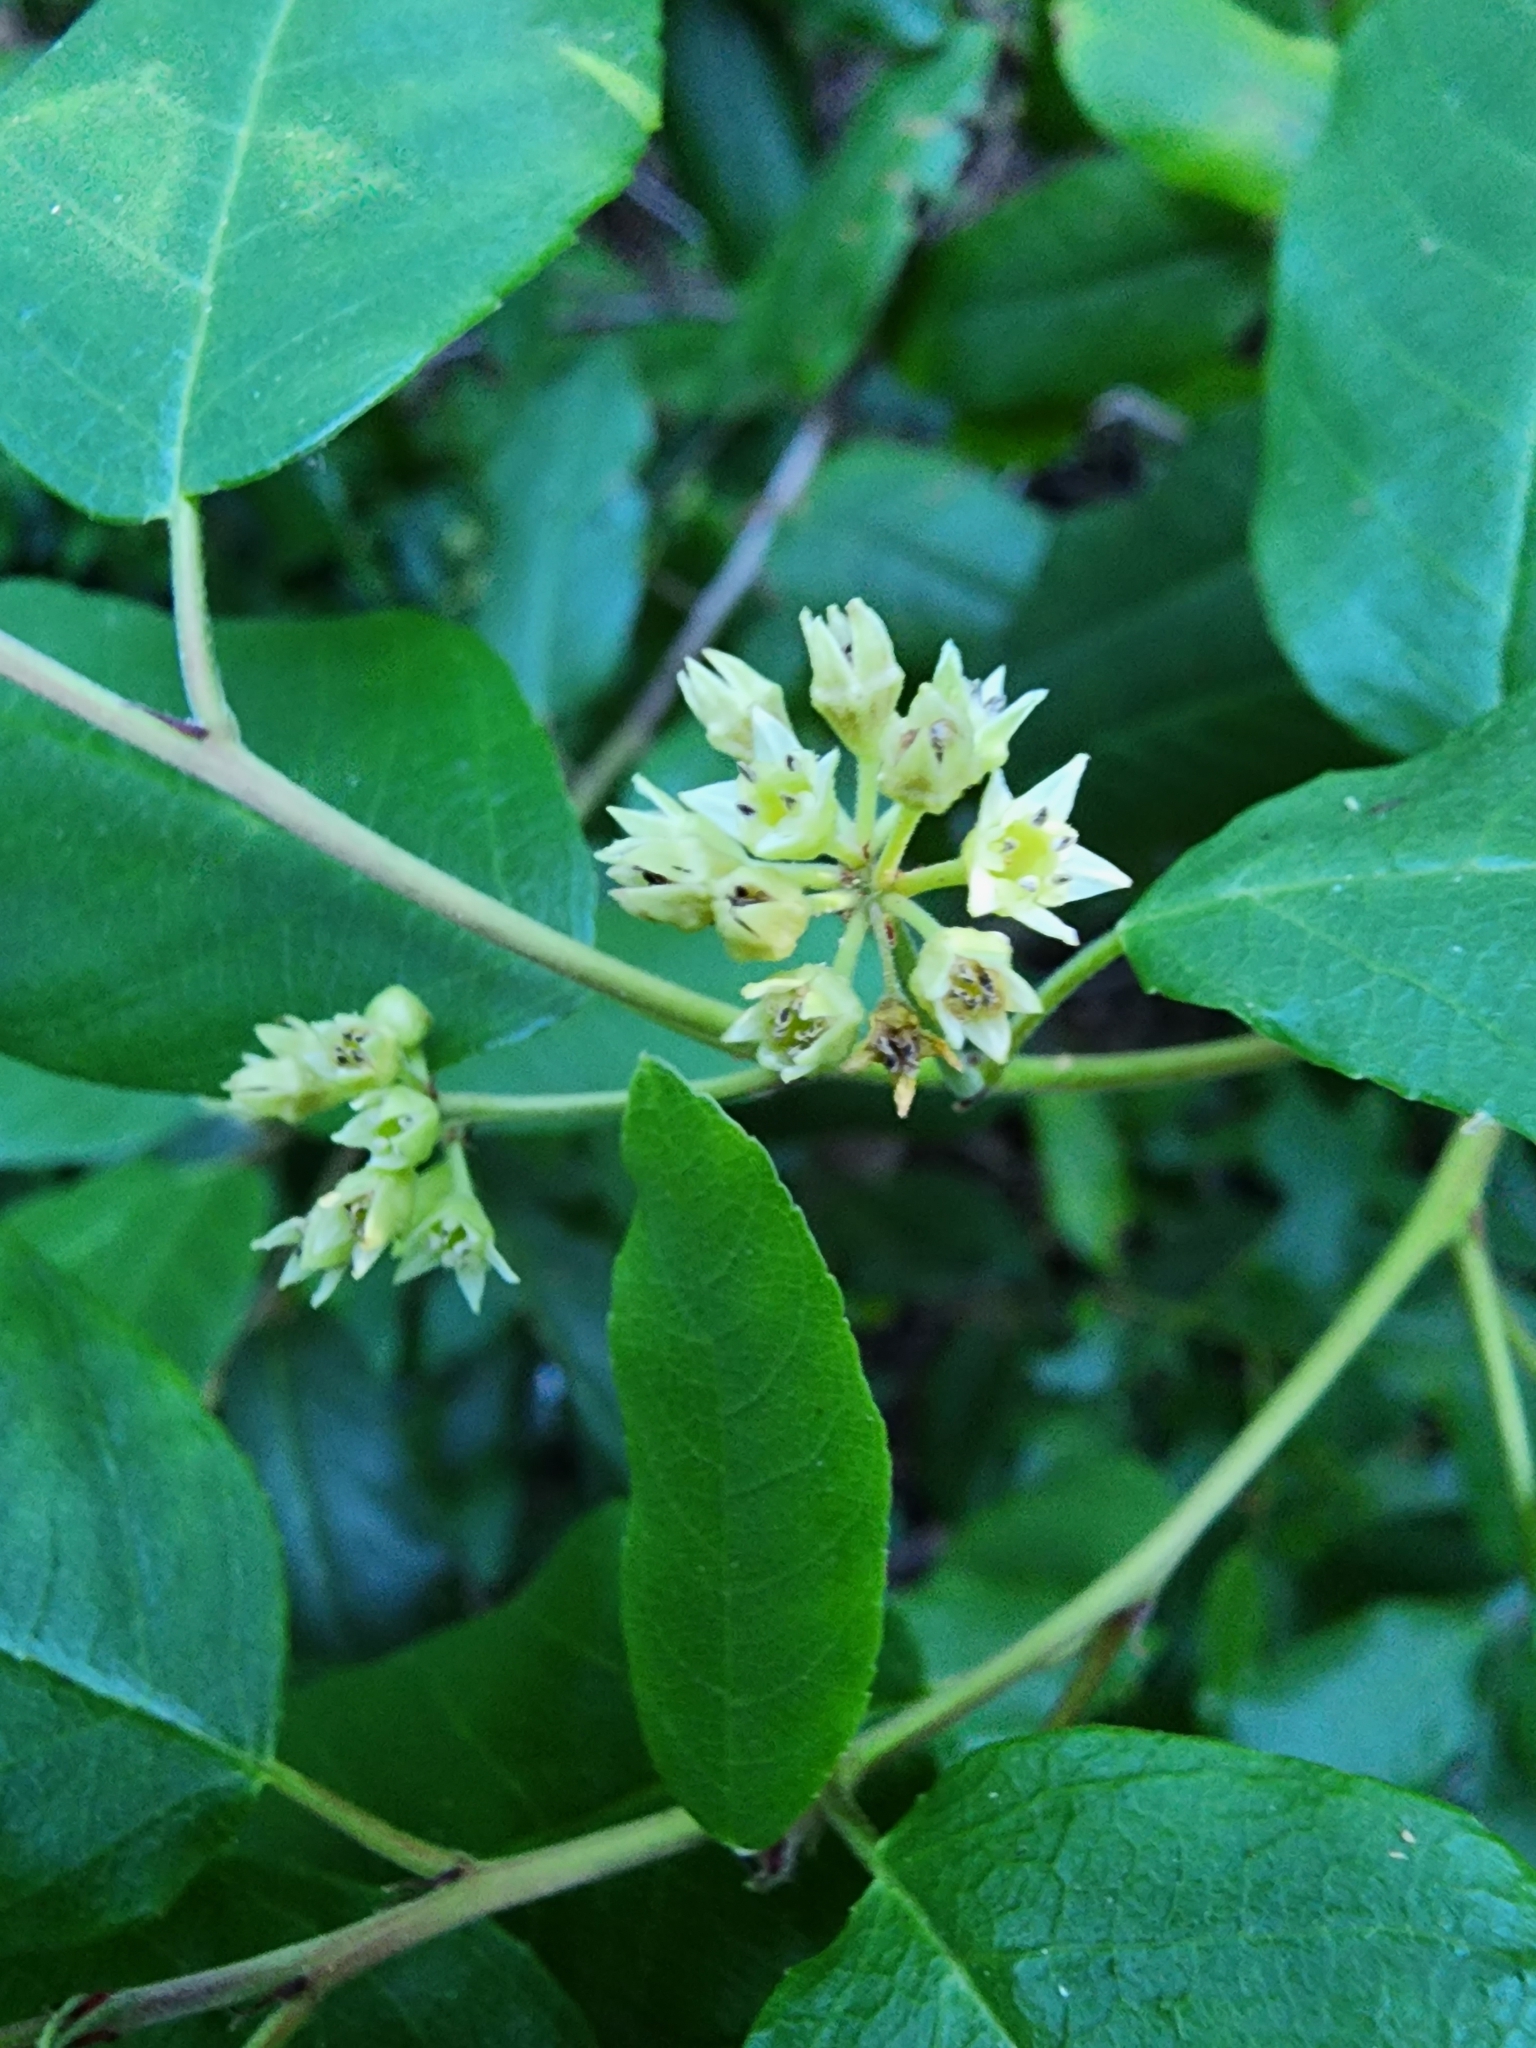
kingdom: Plantae
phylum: Tracheophyta
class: Magnoliopsida
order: Rosales
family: Rhamnaceae
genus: Frangula
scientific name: Frangula californica
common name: California buckthorn
